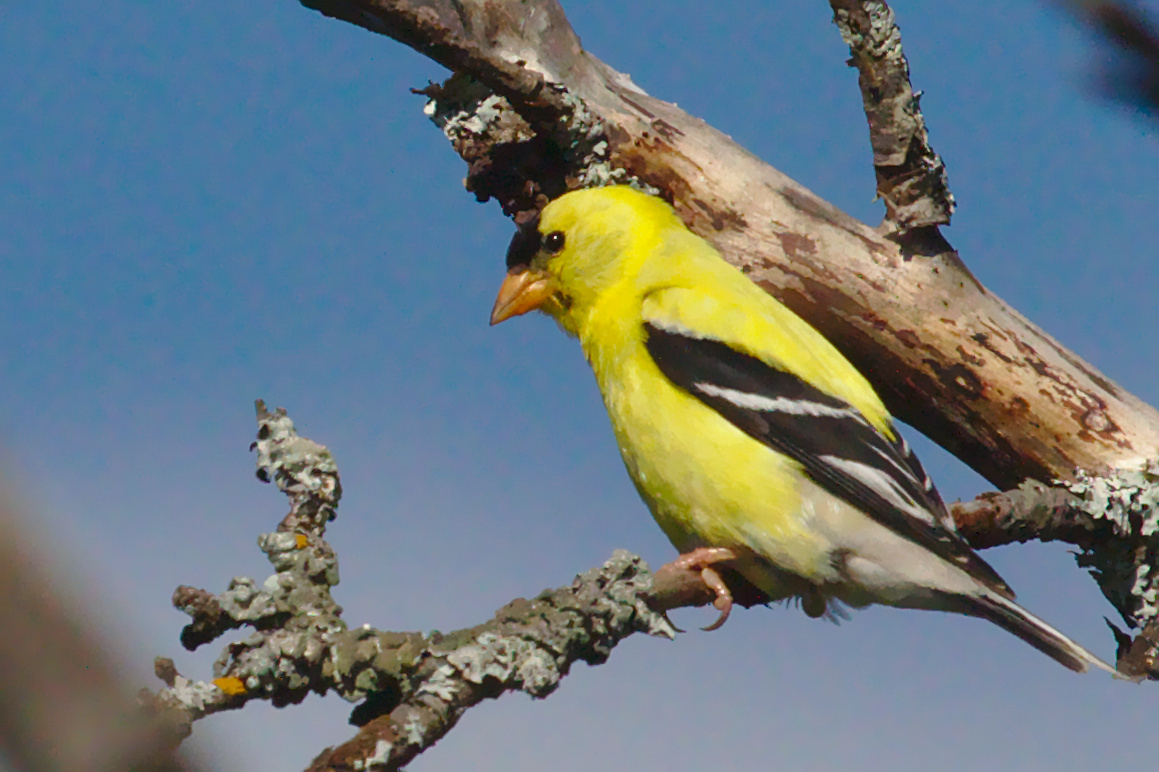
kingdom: Animalia
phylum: Chordata
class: Aves
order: Passeriformes
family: Fringillidae
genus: Spinus
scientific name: Spinus tristis
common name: American goldfinch
